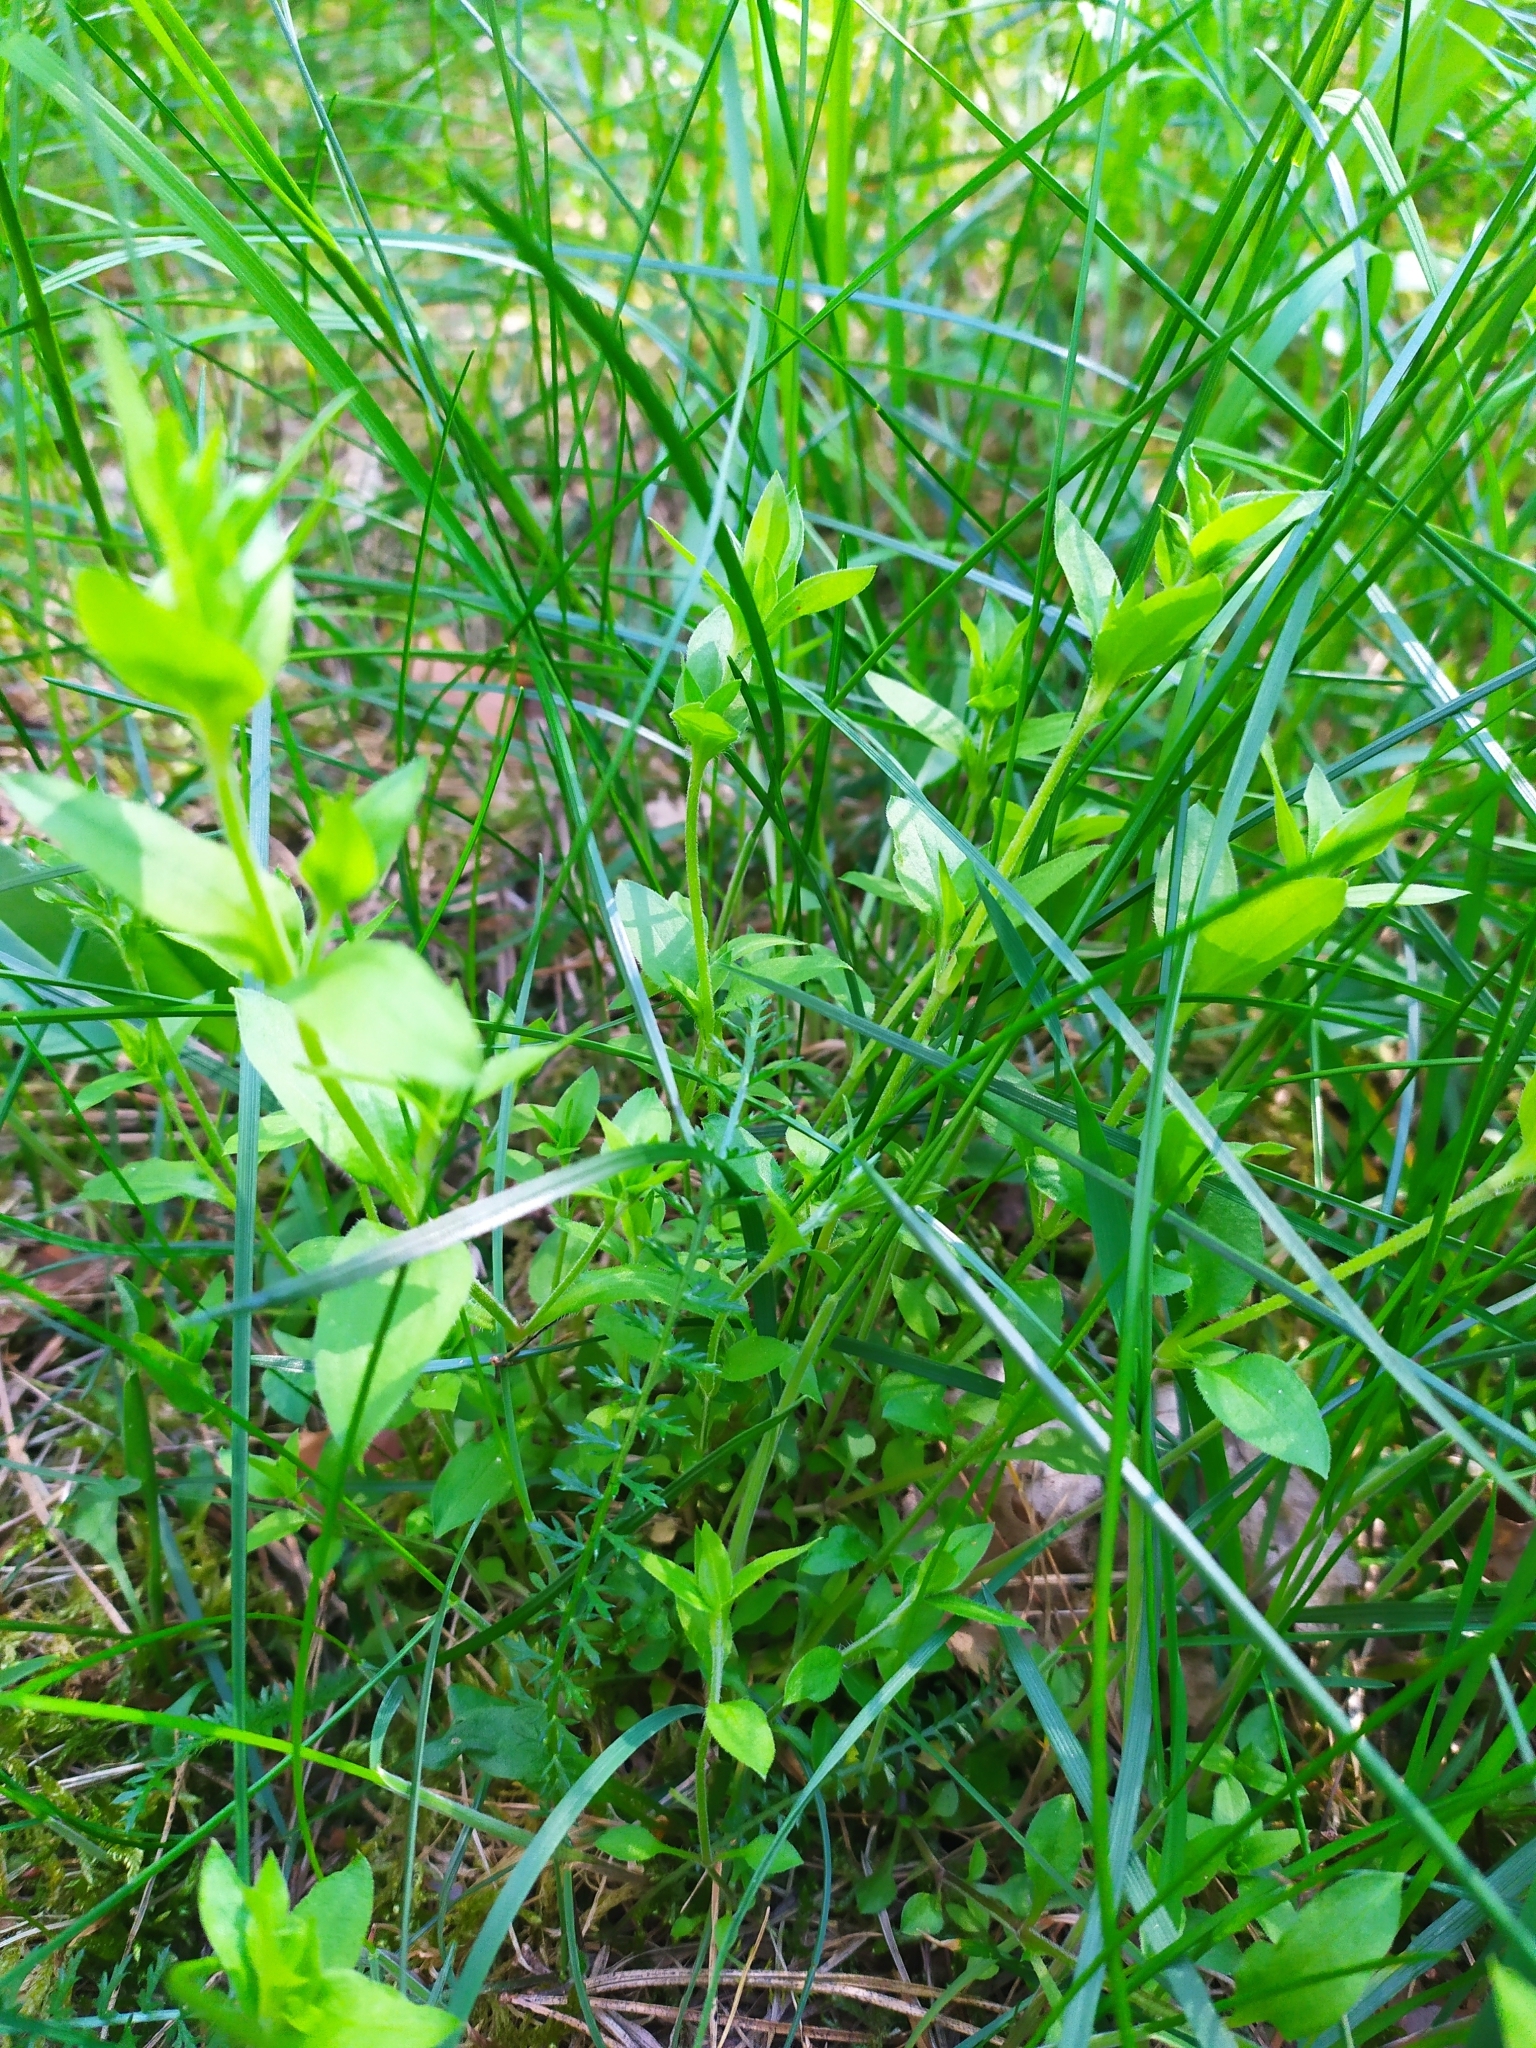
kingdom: Plantae
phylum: Tracheophyta
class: Magnoliopsida
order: Caryophyllales
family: Caryophyllaceae
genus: Moehringia
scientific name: Moehringia trinervia
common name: Three-nerved sandwort
